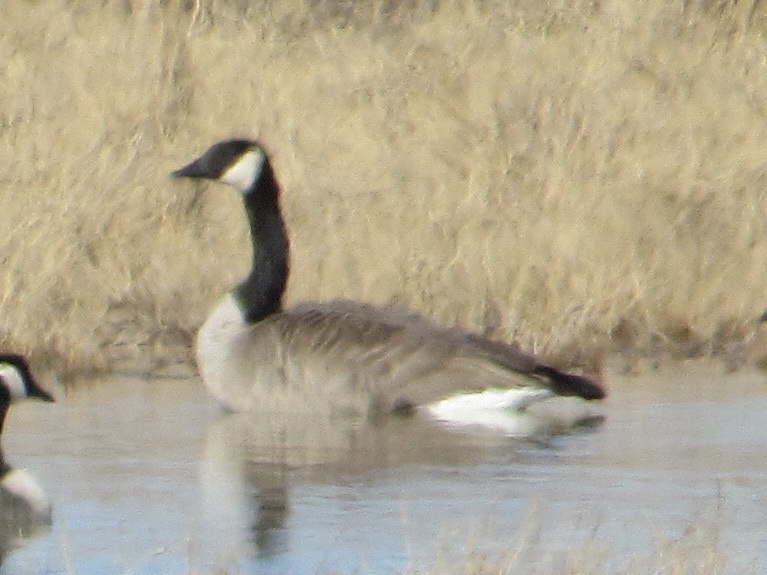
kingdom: Animalia
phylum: Chordata
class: Aves
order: Anseriformes
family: Anatidae
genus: Branta
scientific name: Branta canadensis
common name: Canada goose
